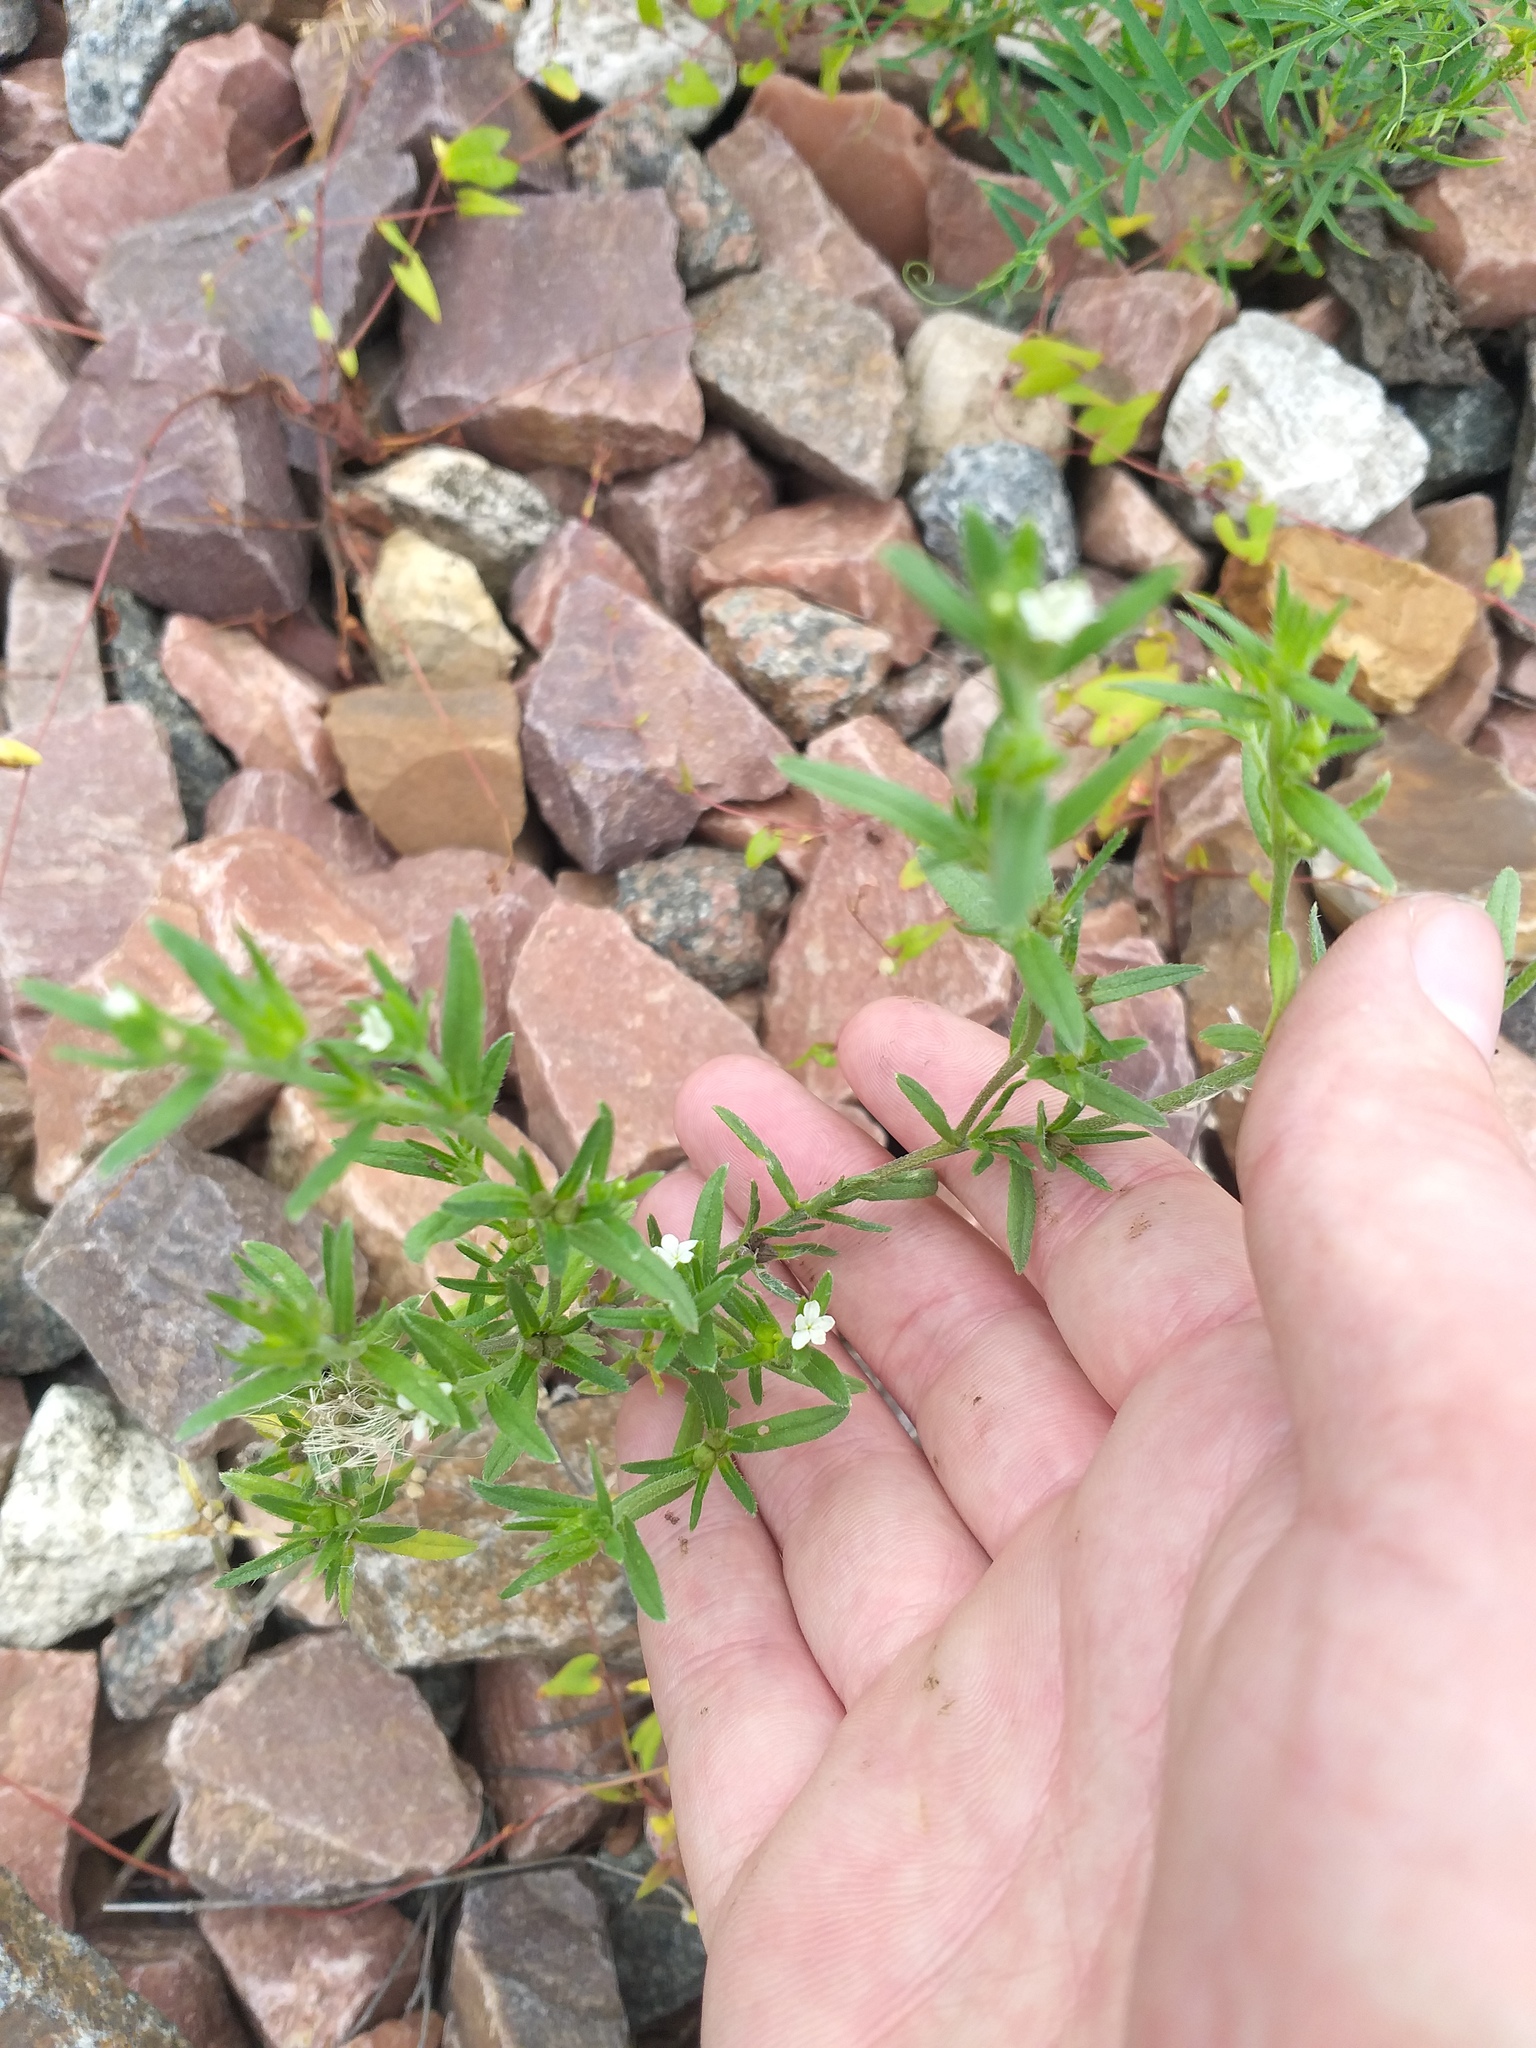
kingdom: Plantae
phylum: Tracheophyta
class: Magnoliopsida
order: Boraginales
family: Boraginaceae
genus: Buglossoides
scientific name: Buglossoides arvensis
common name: Corn gromwell
